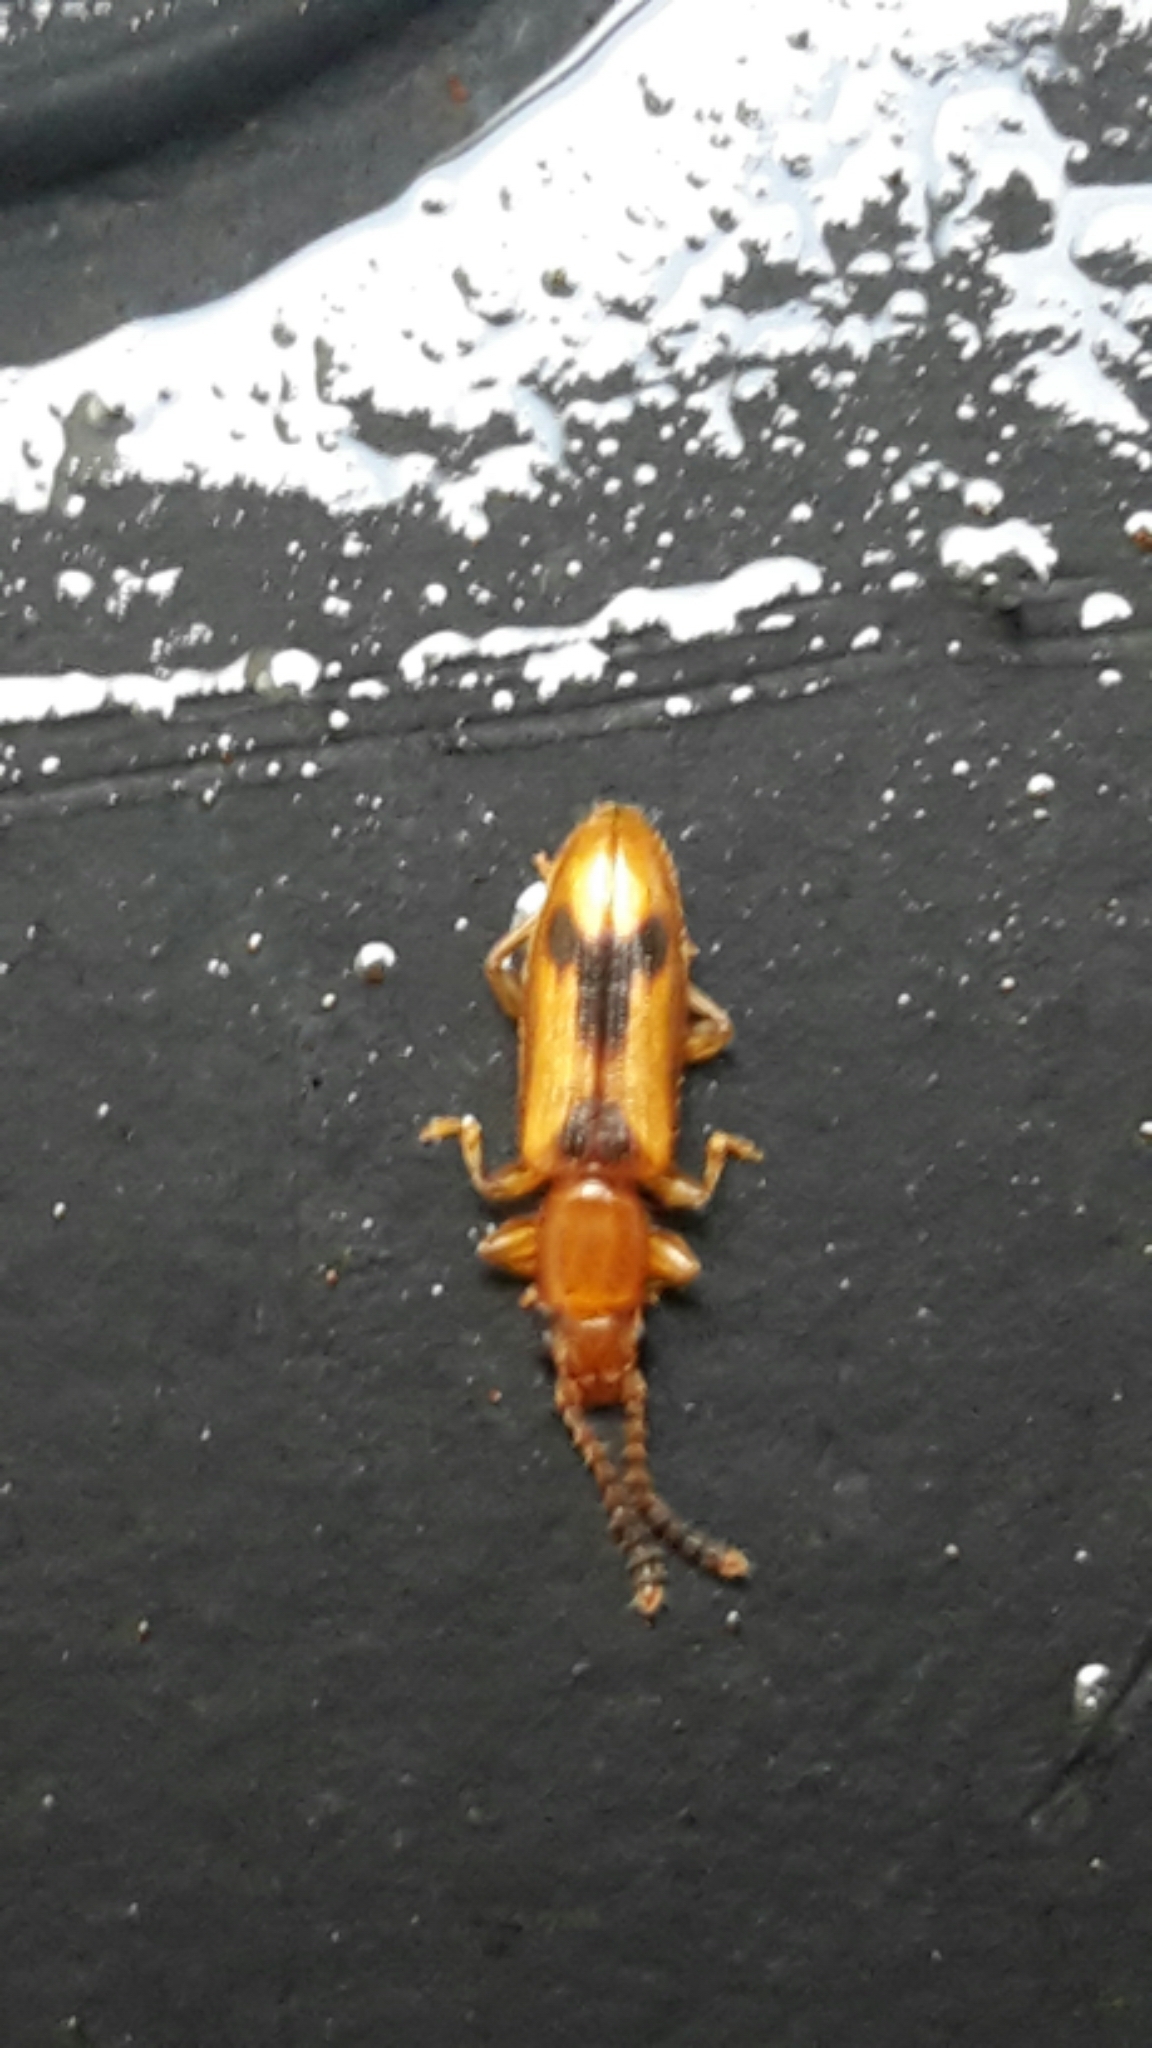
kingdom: Animalia
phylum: Arthropoda
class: Insecta
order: Coleoptera
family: Silvanidae
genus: Cryptamorpha
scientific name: Cryptamorpha desjardinsi
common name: Cryptamorpha
